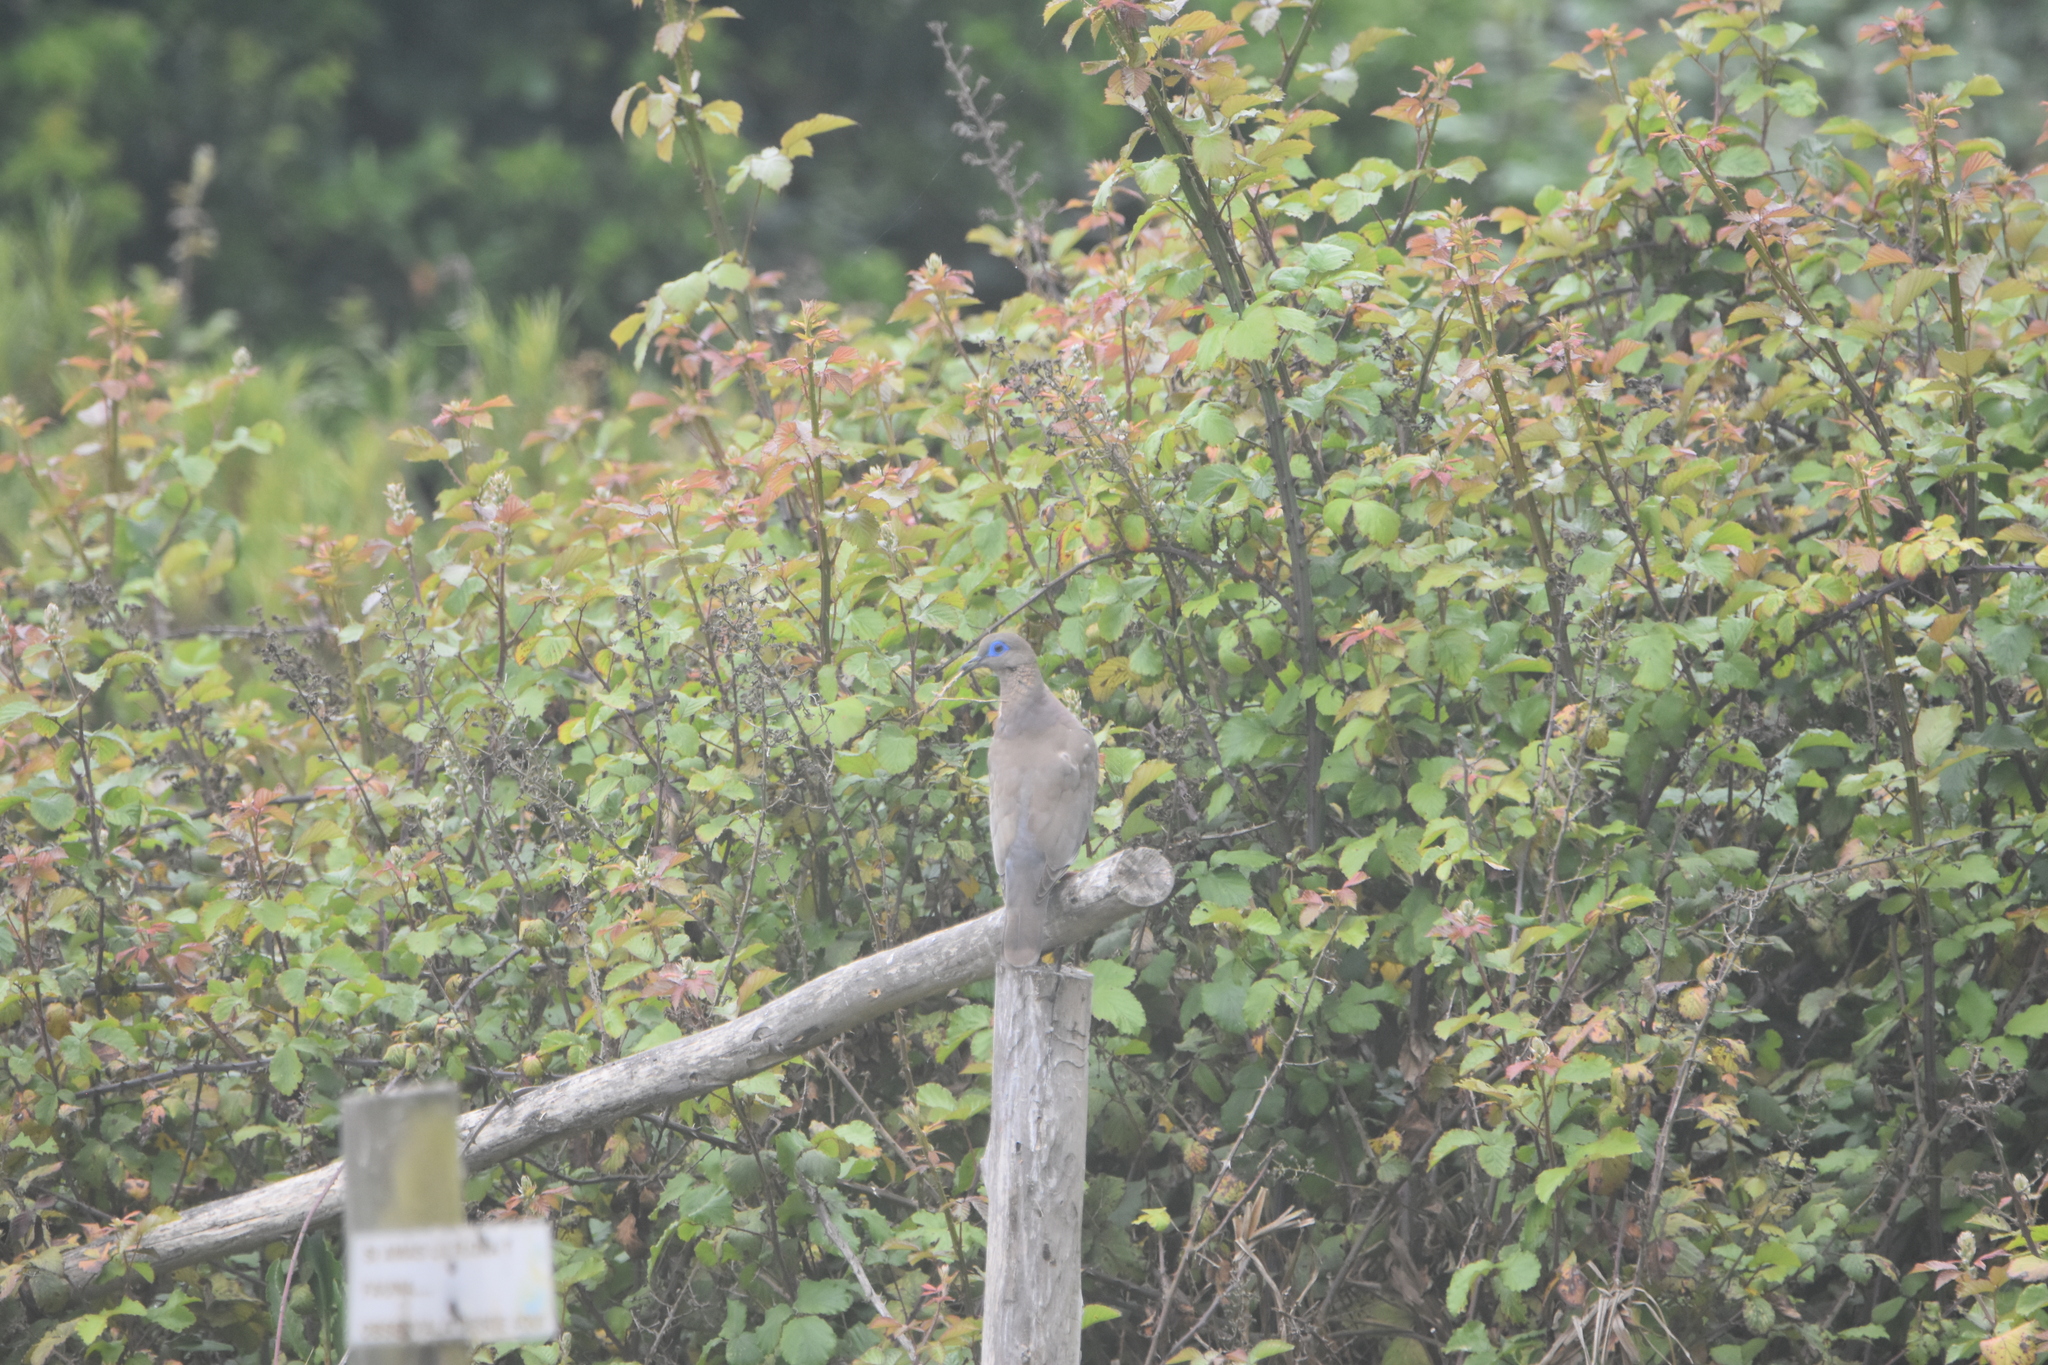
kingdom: Animalia
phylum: Chordata
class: Aves
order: Columbiformes
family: Columbidae
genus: Zenaida
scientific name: Zenaida meloda
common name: West peruvian dove
